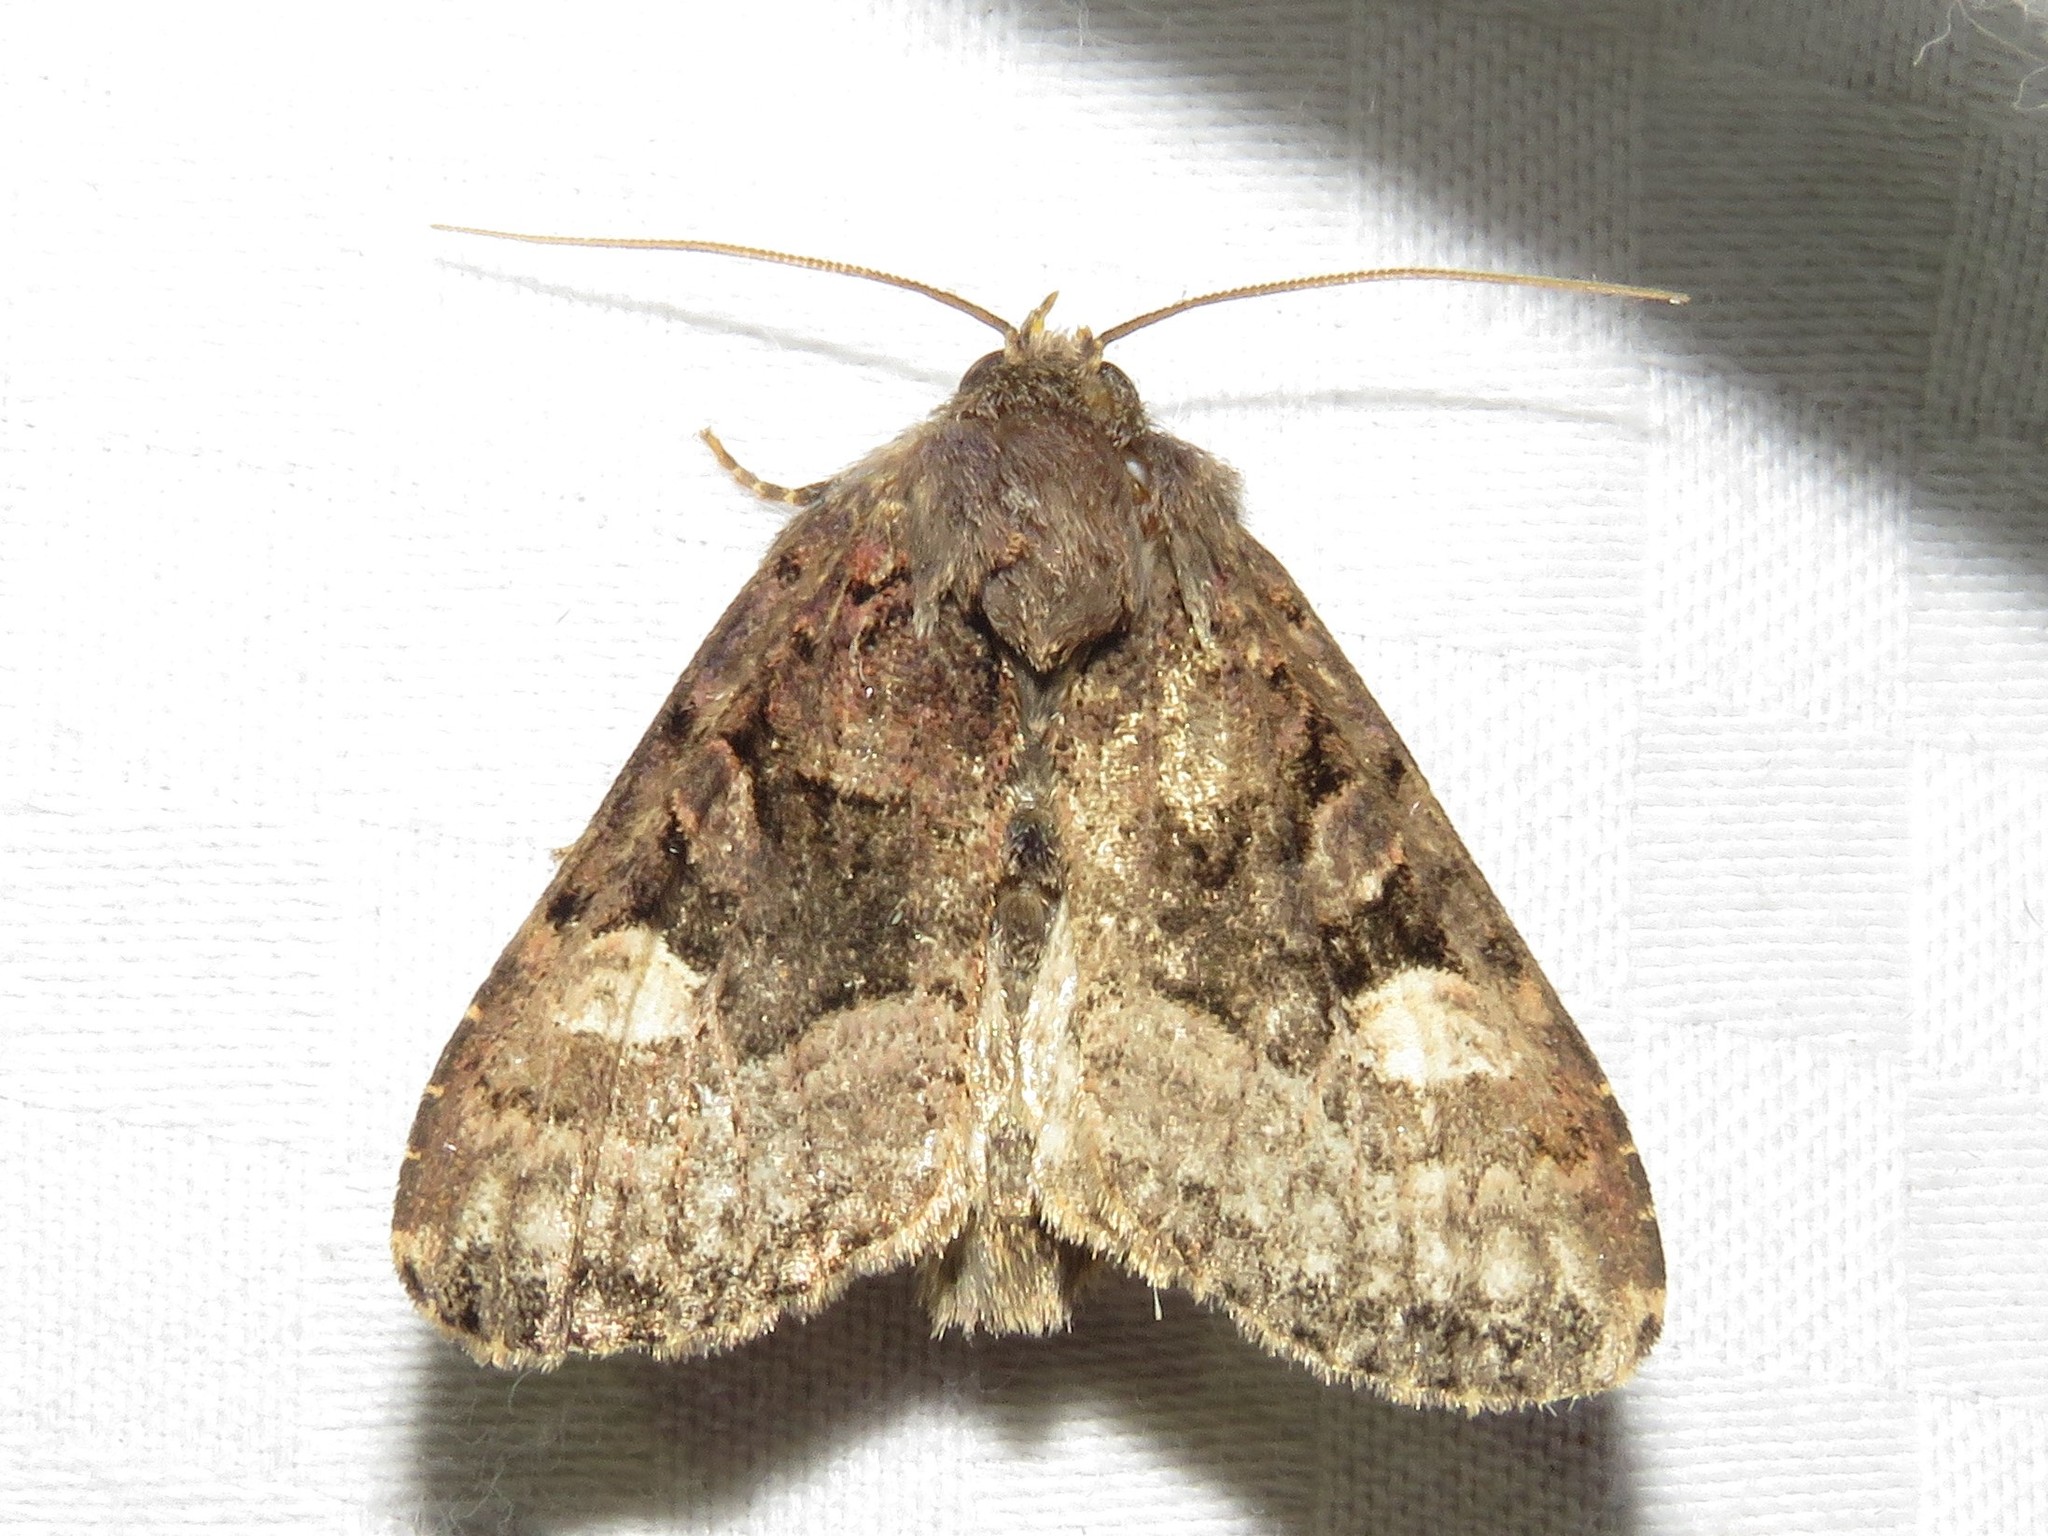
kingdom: Animalia
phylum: Arthropoda
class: Insecta
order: Lepidoptera
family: Noctuidae
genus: Euplexia
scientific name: Euplexia benesimilis
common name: American angle shades
